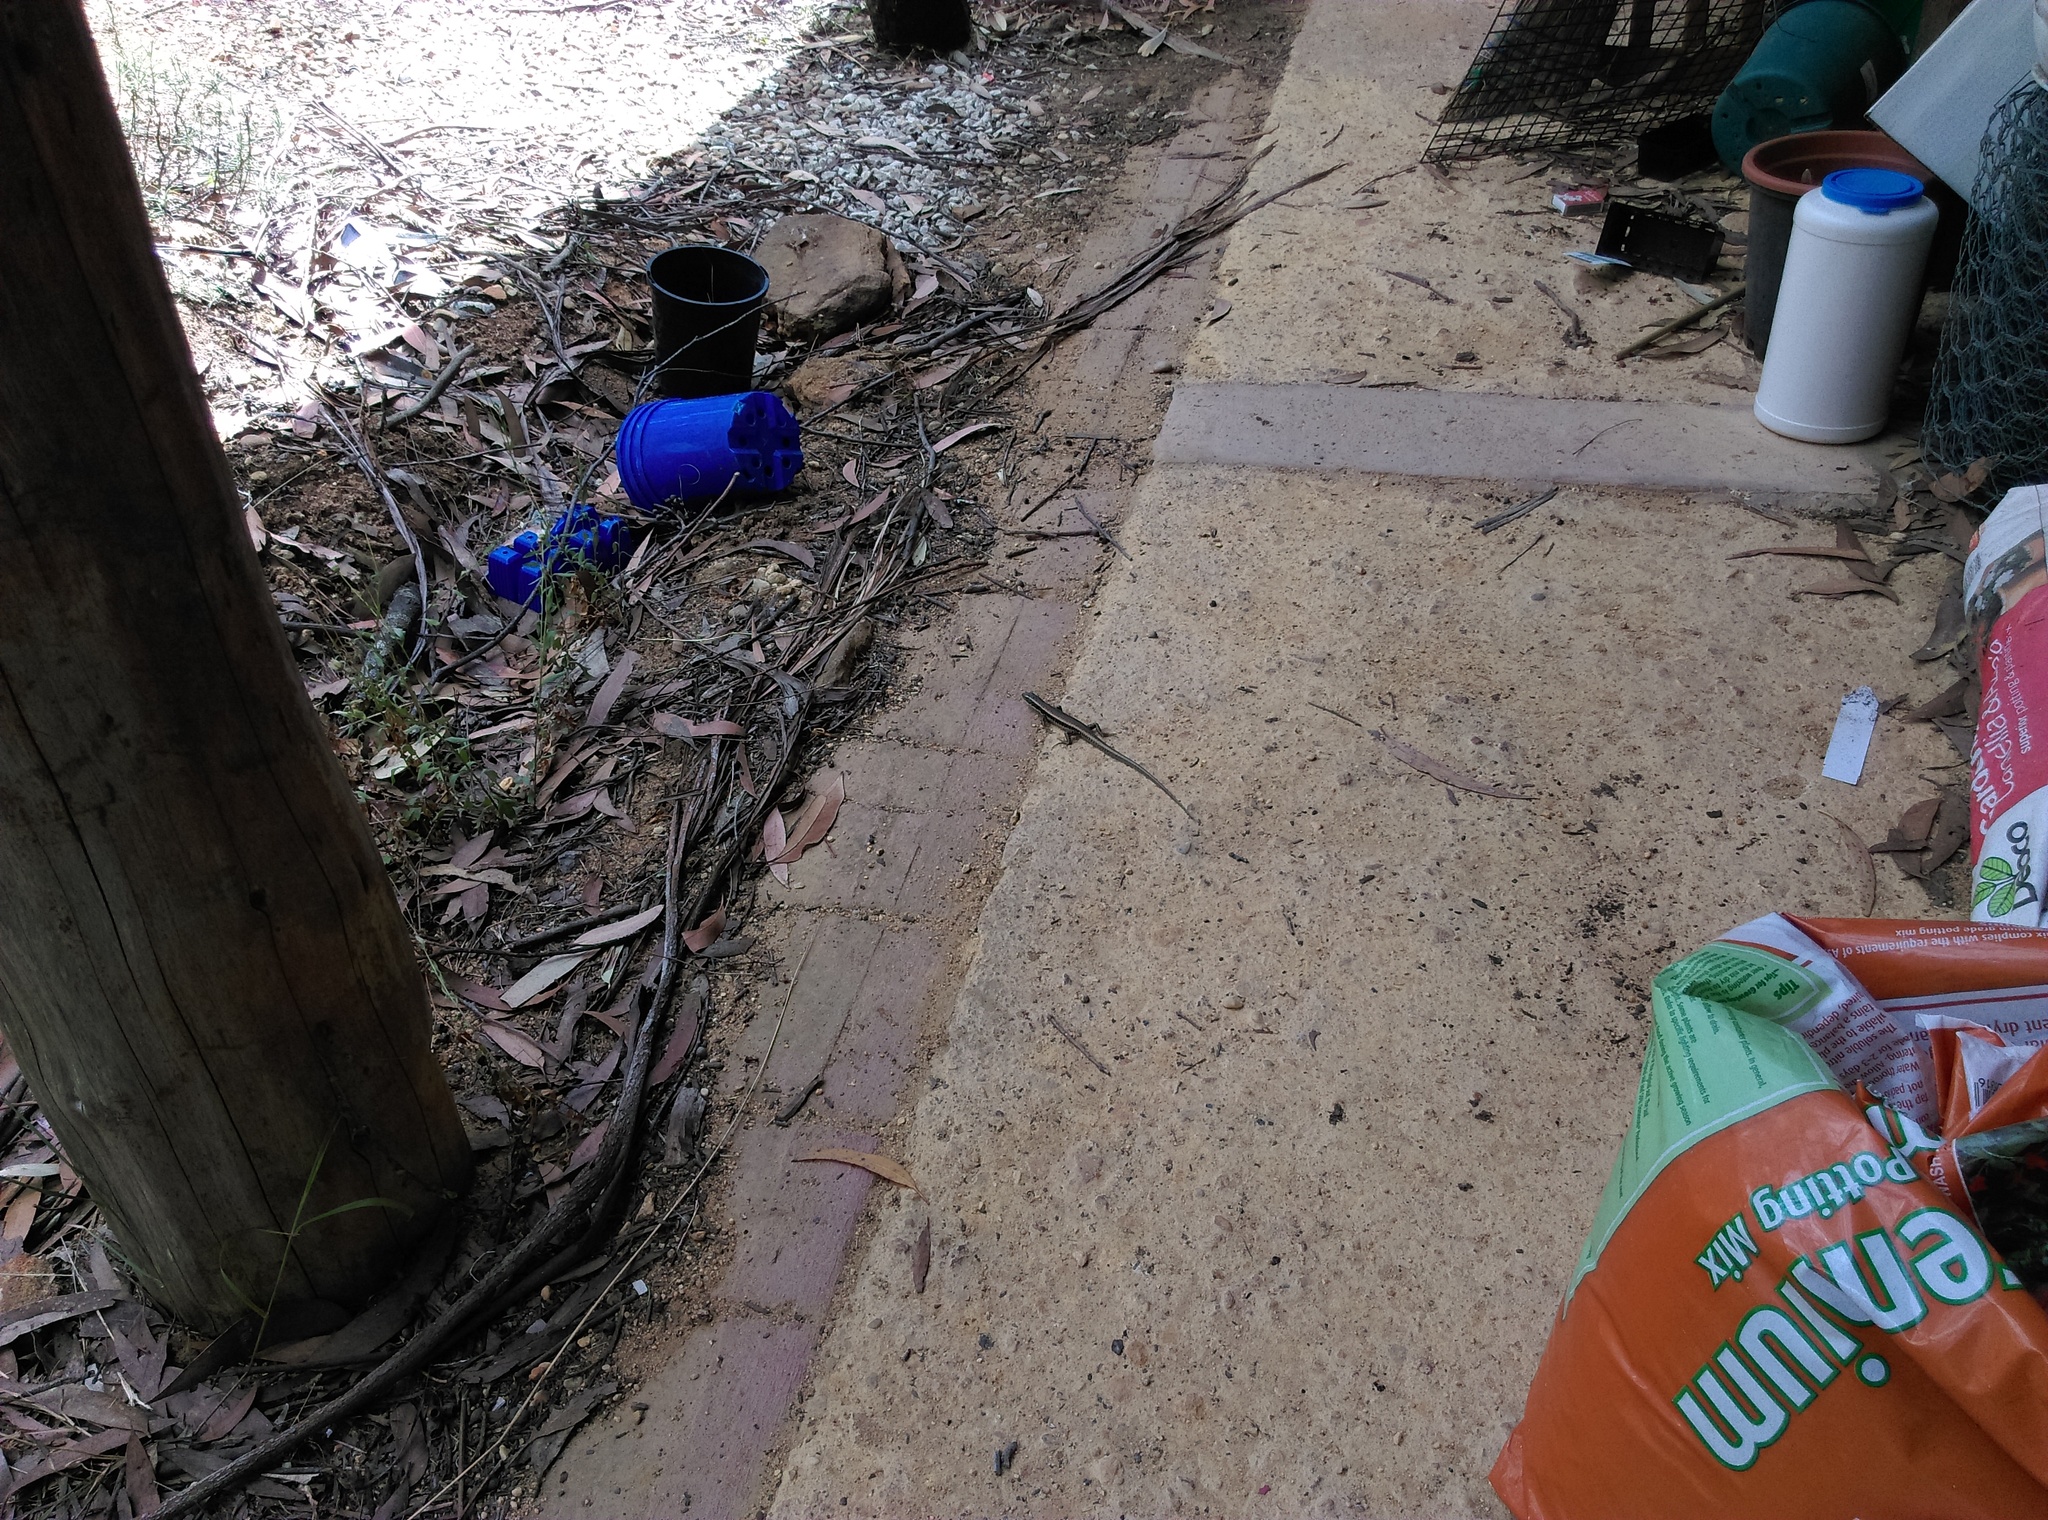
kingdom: Animalia
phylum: Chordata
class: Squamata
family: Scincidae
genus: Eulamprus
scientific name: Eulamprus quoyii
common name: Eastern water skink
